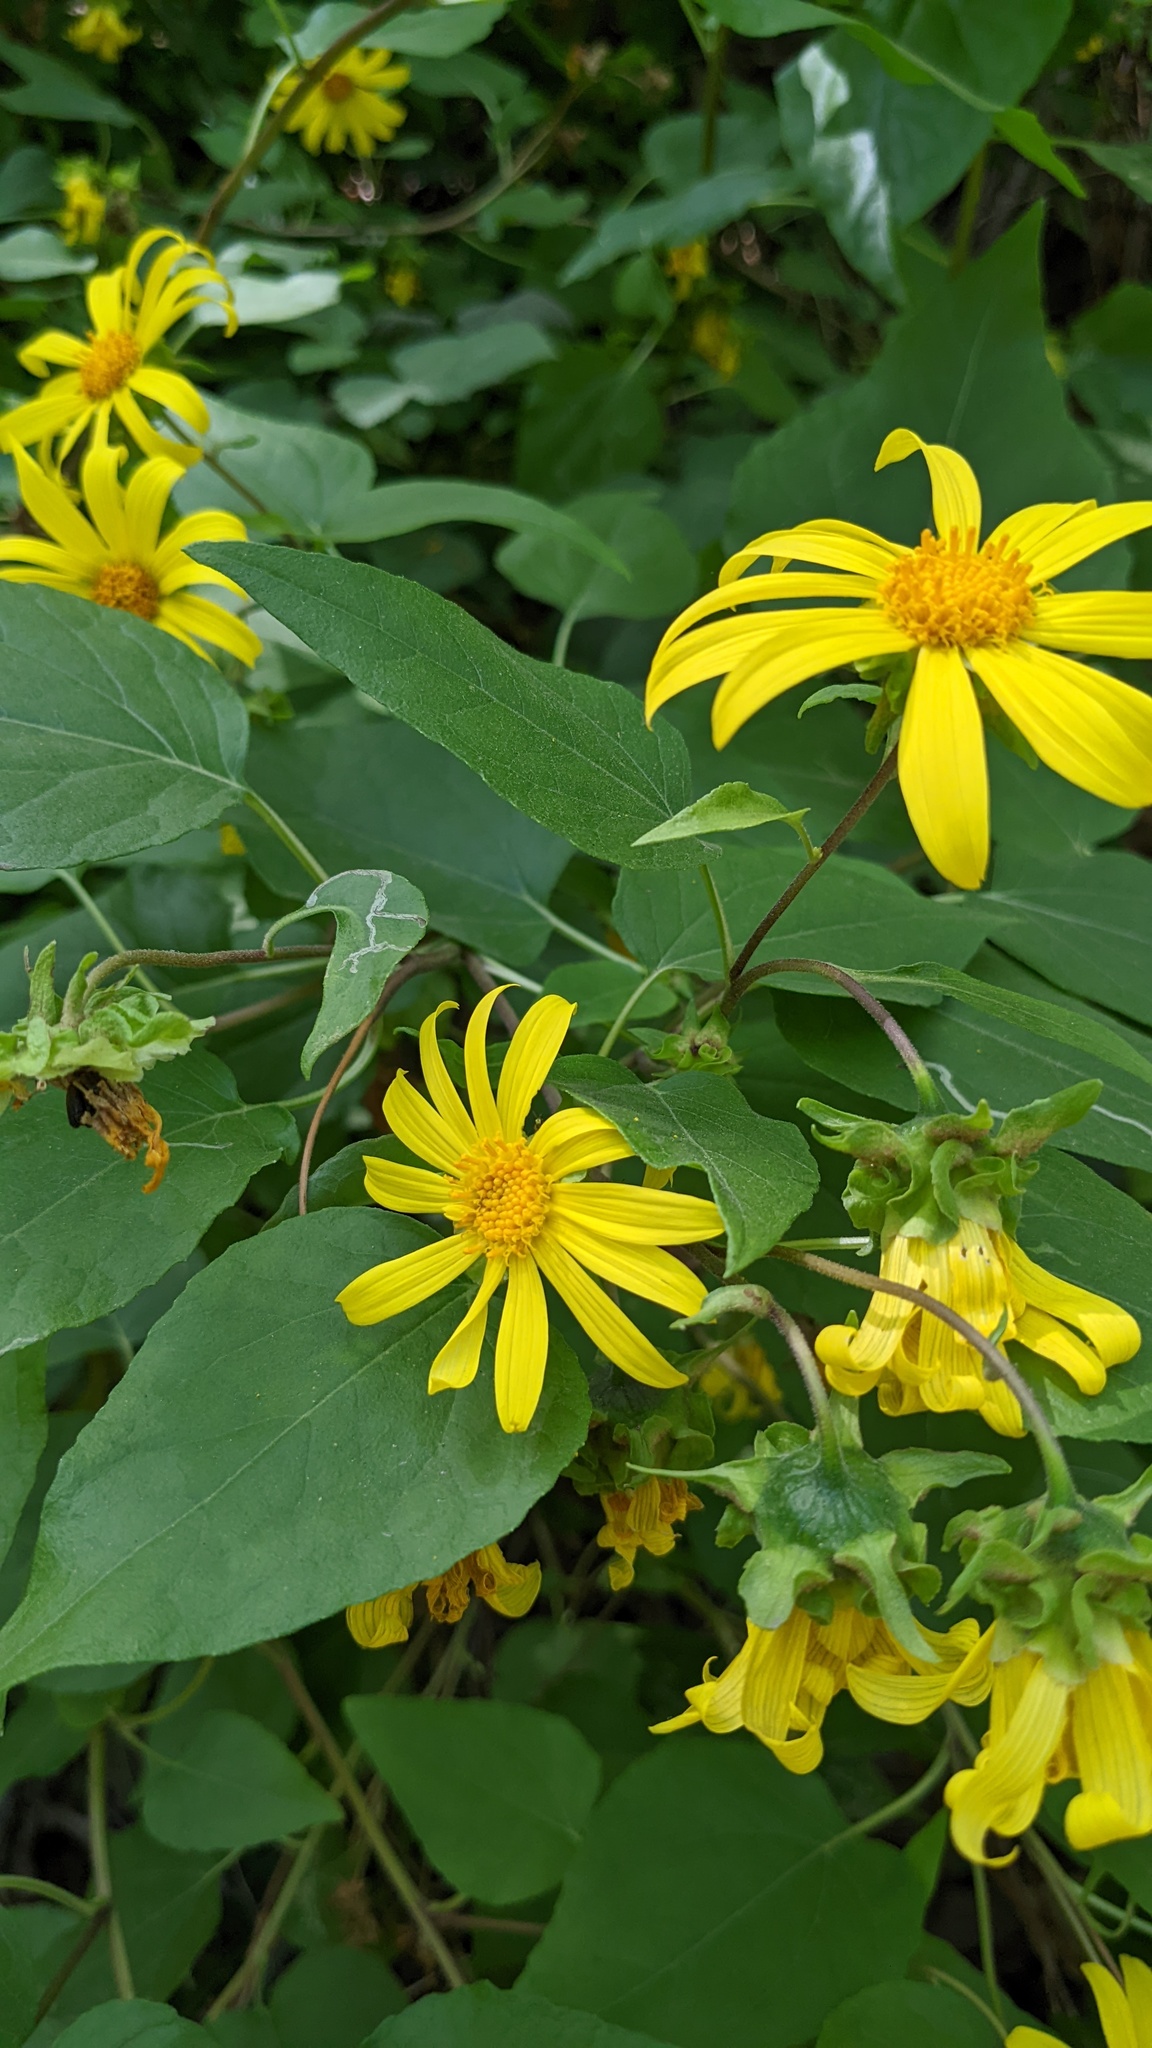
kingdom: Plantae
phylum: Tracheophyta
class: Magnoliopsida
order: Asterales
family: Asteraceae
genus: Venegasia
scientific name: Venegasia carpesioides
